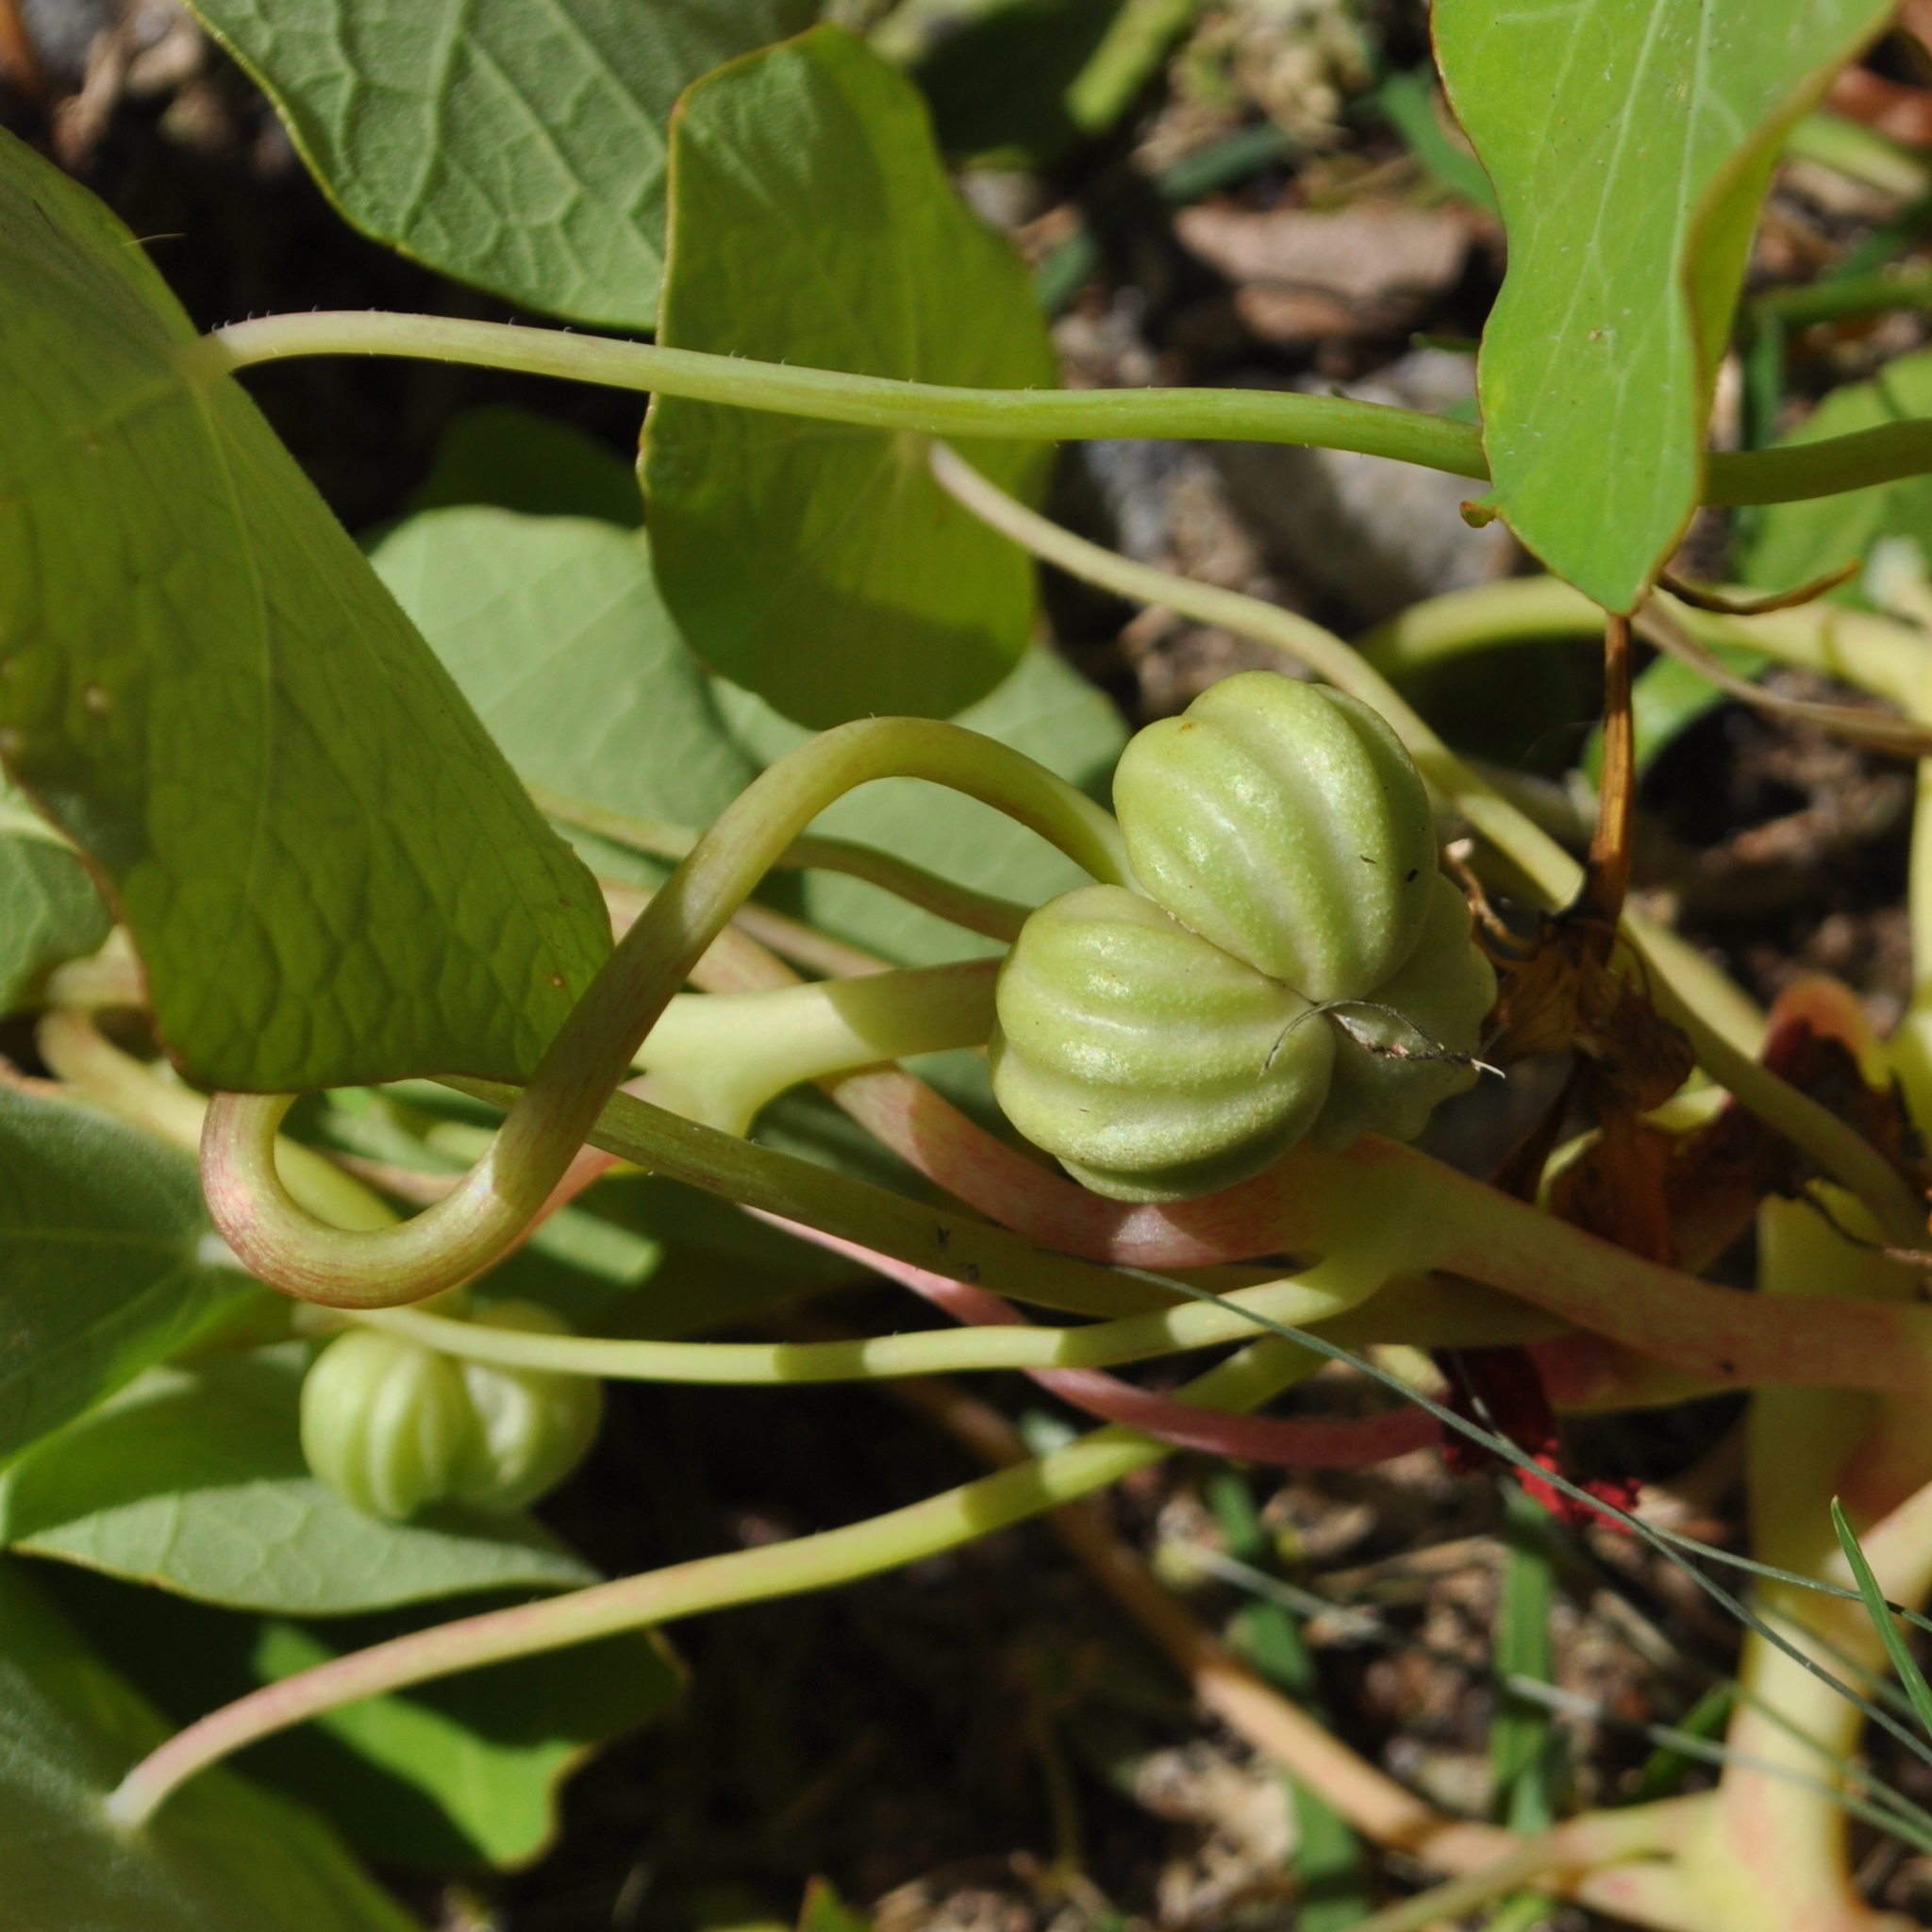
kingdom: Plantae
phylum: Tracheophyta
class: Magnoliopsida
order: Brassicales
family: Tropaeolaceae
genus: Tropaeolum
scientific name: Tropaeolum majus
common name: Nasturtium
